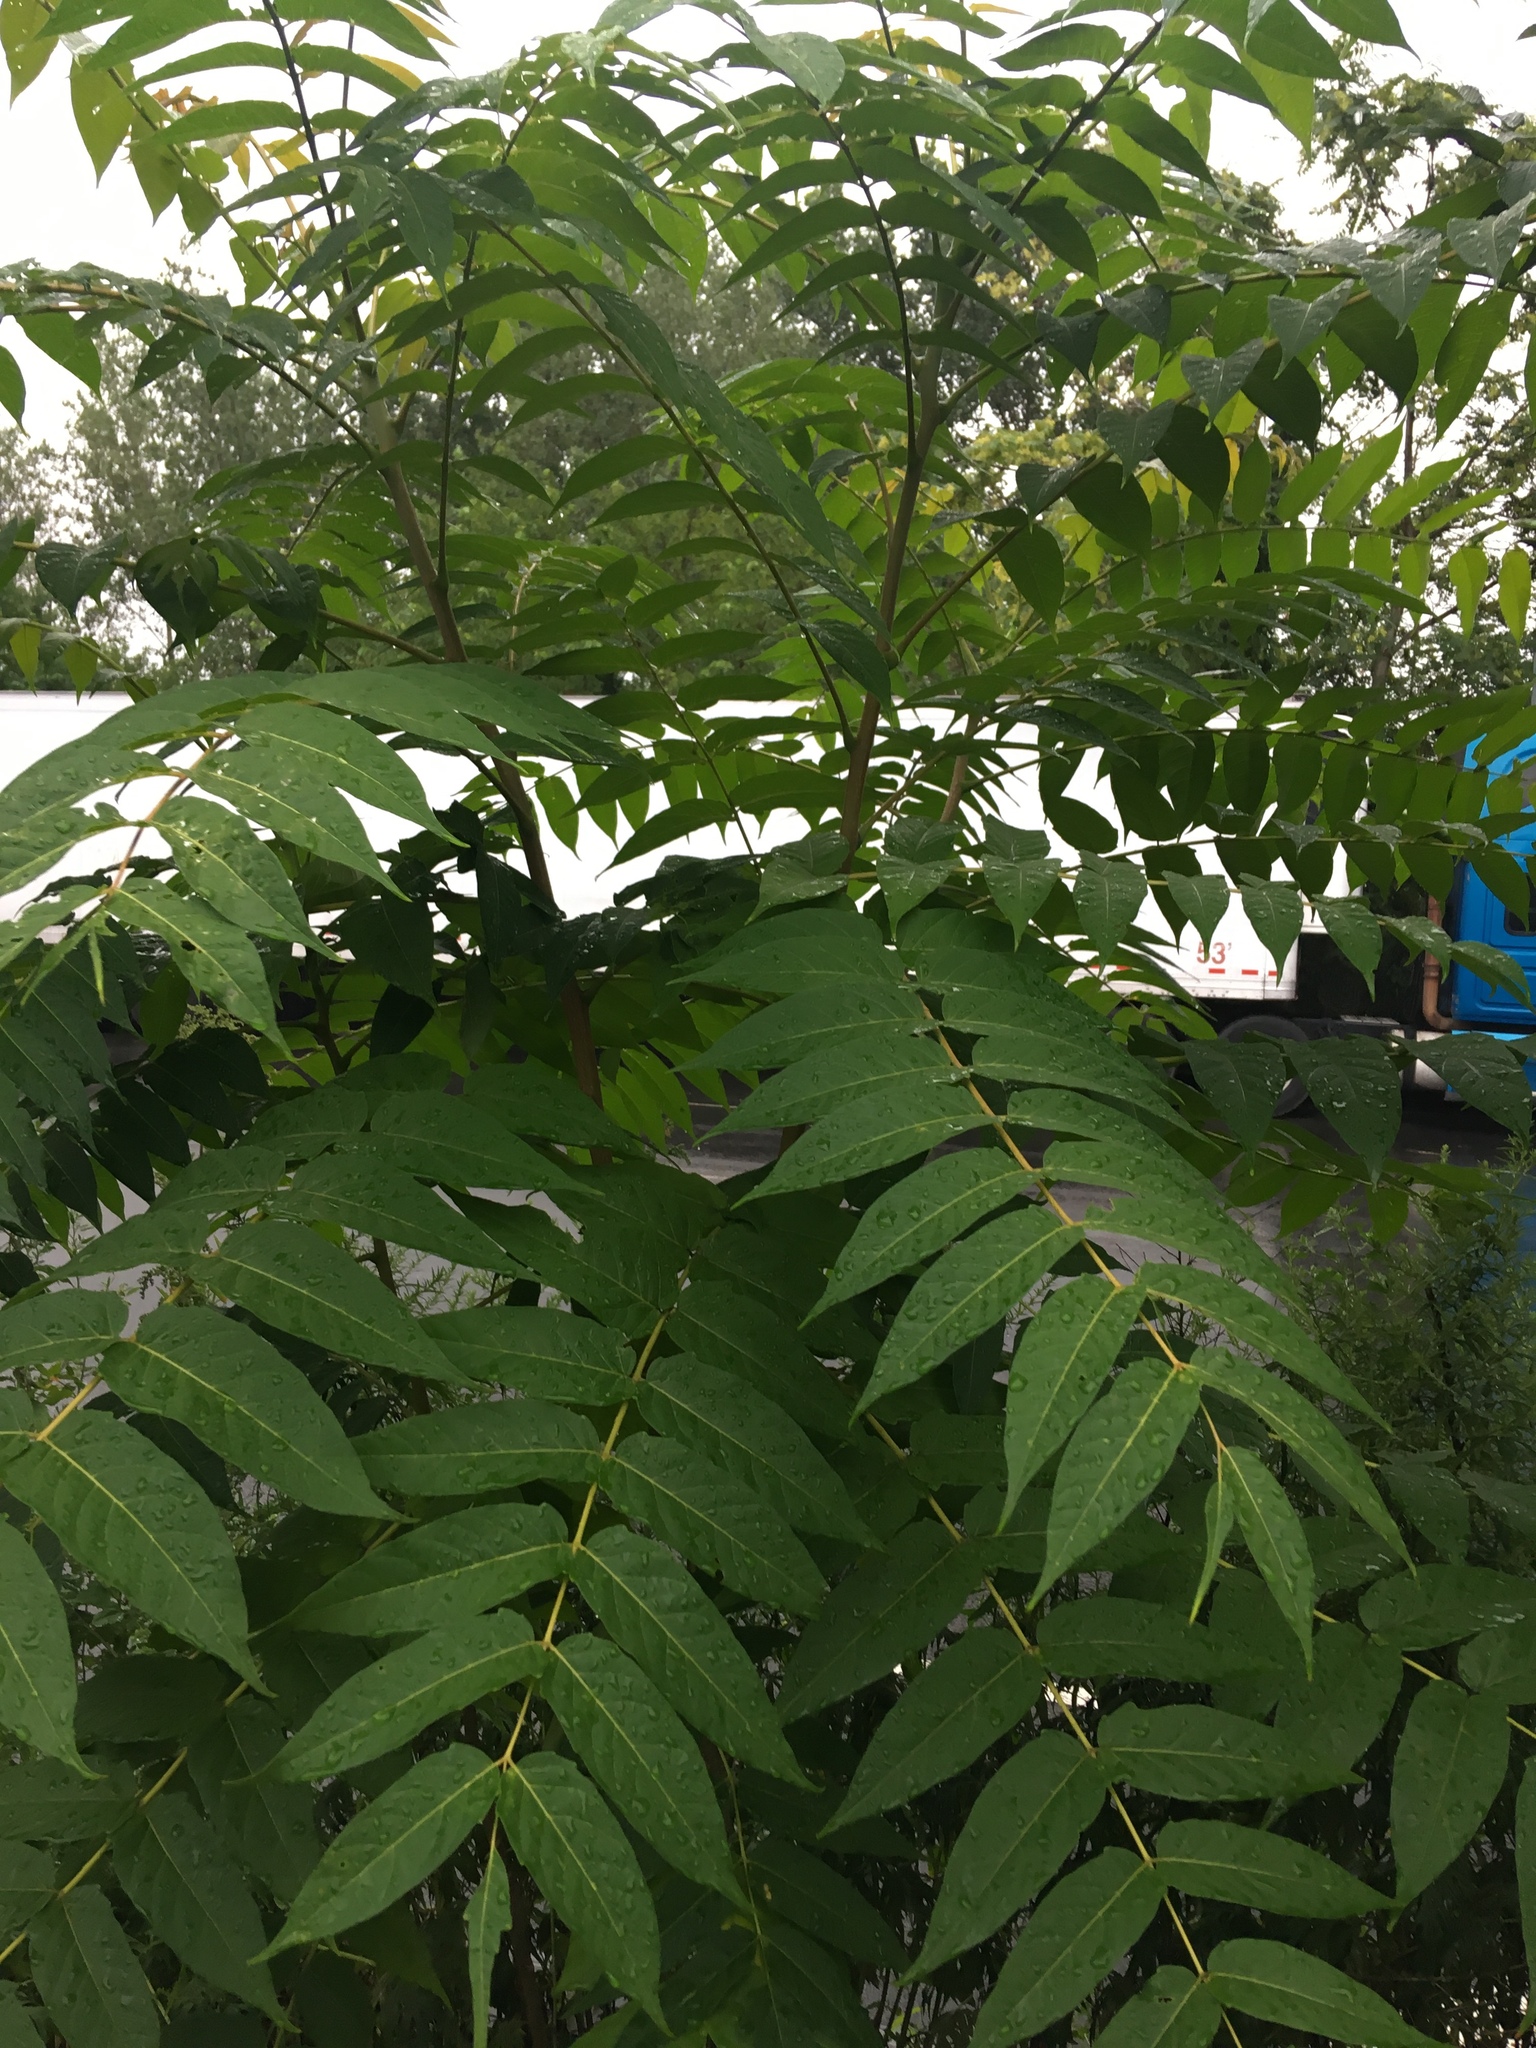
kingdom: Plantae
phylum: Tracheophyta
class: Magnoliopsida
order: Sapindales
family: Simaroubaceae
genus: Ailanthus
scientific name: Ailanthus altissima
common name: Tree-of-heaven
